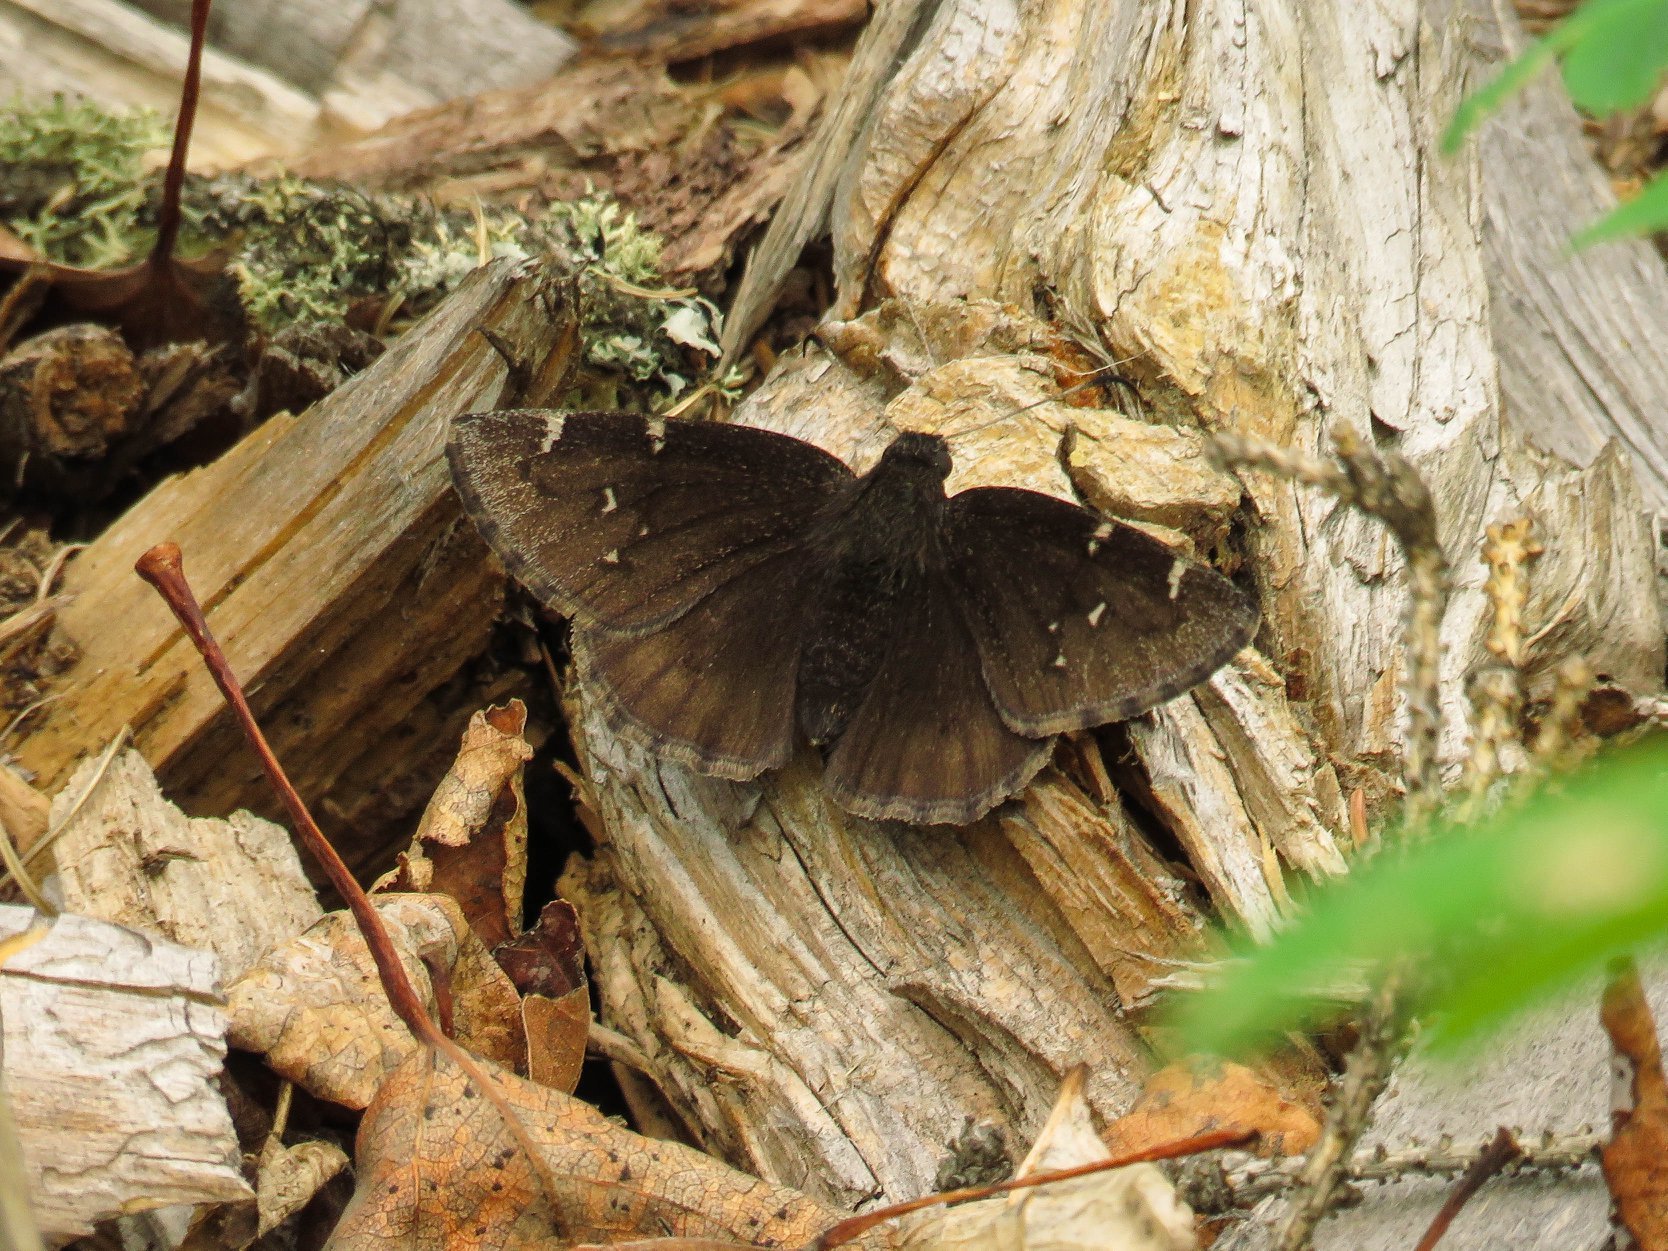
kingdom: Animalia
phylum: Arthropoda
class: Insecta
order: Lepidoptera
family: Hesperiidae
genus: Thorybes
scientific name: Thorybes pylades
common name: Northern cloudywing
